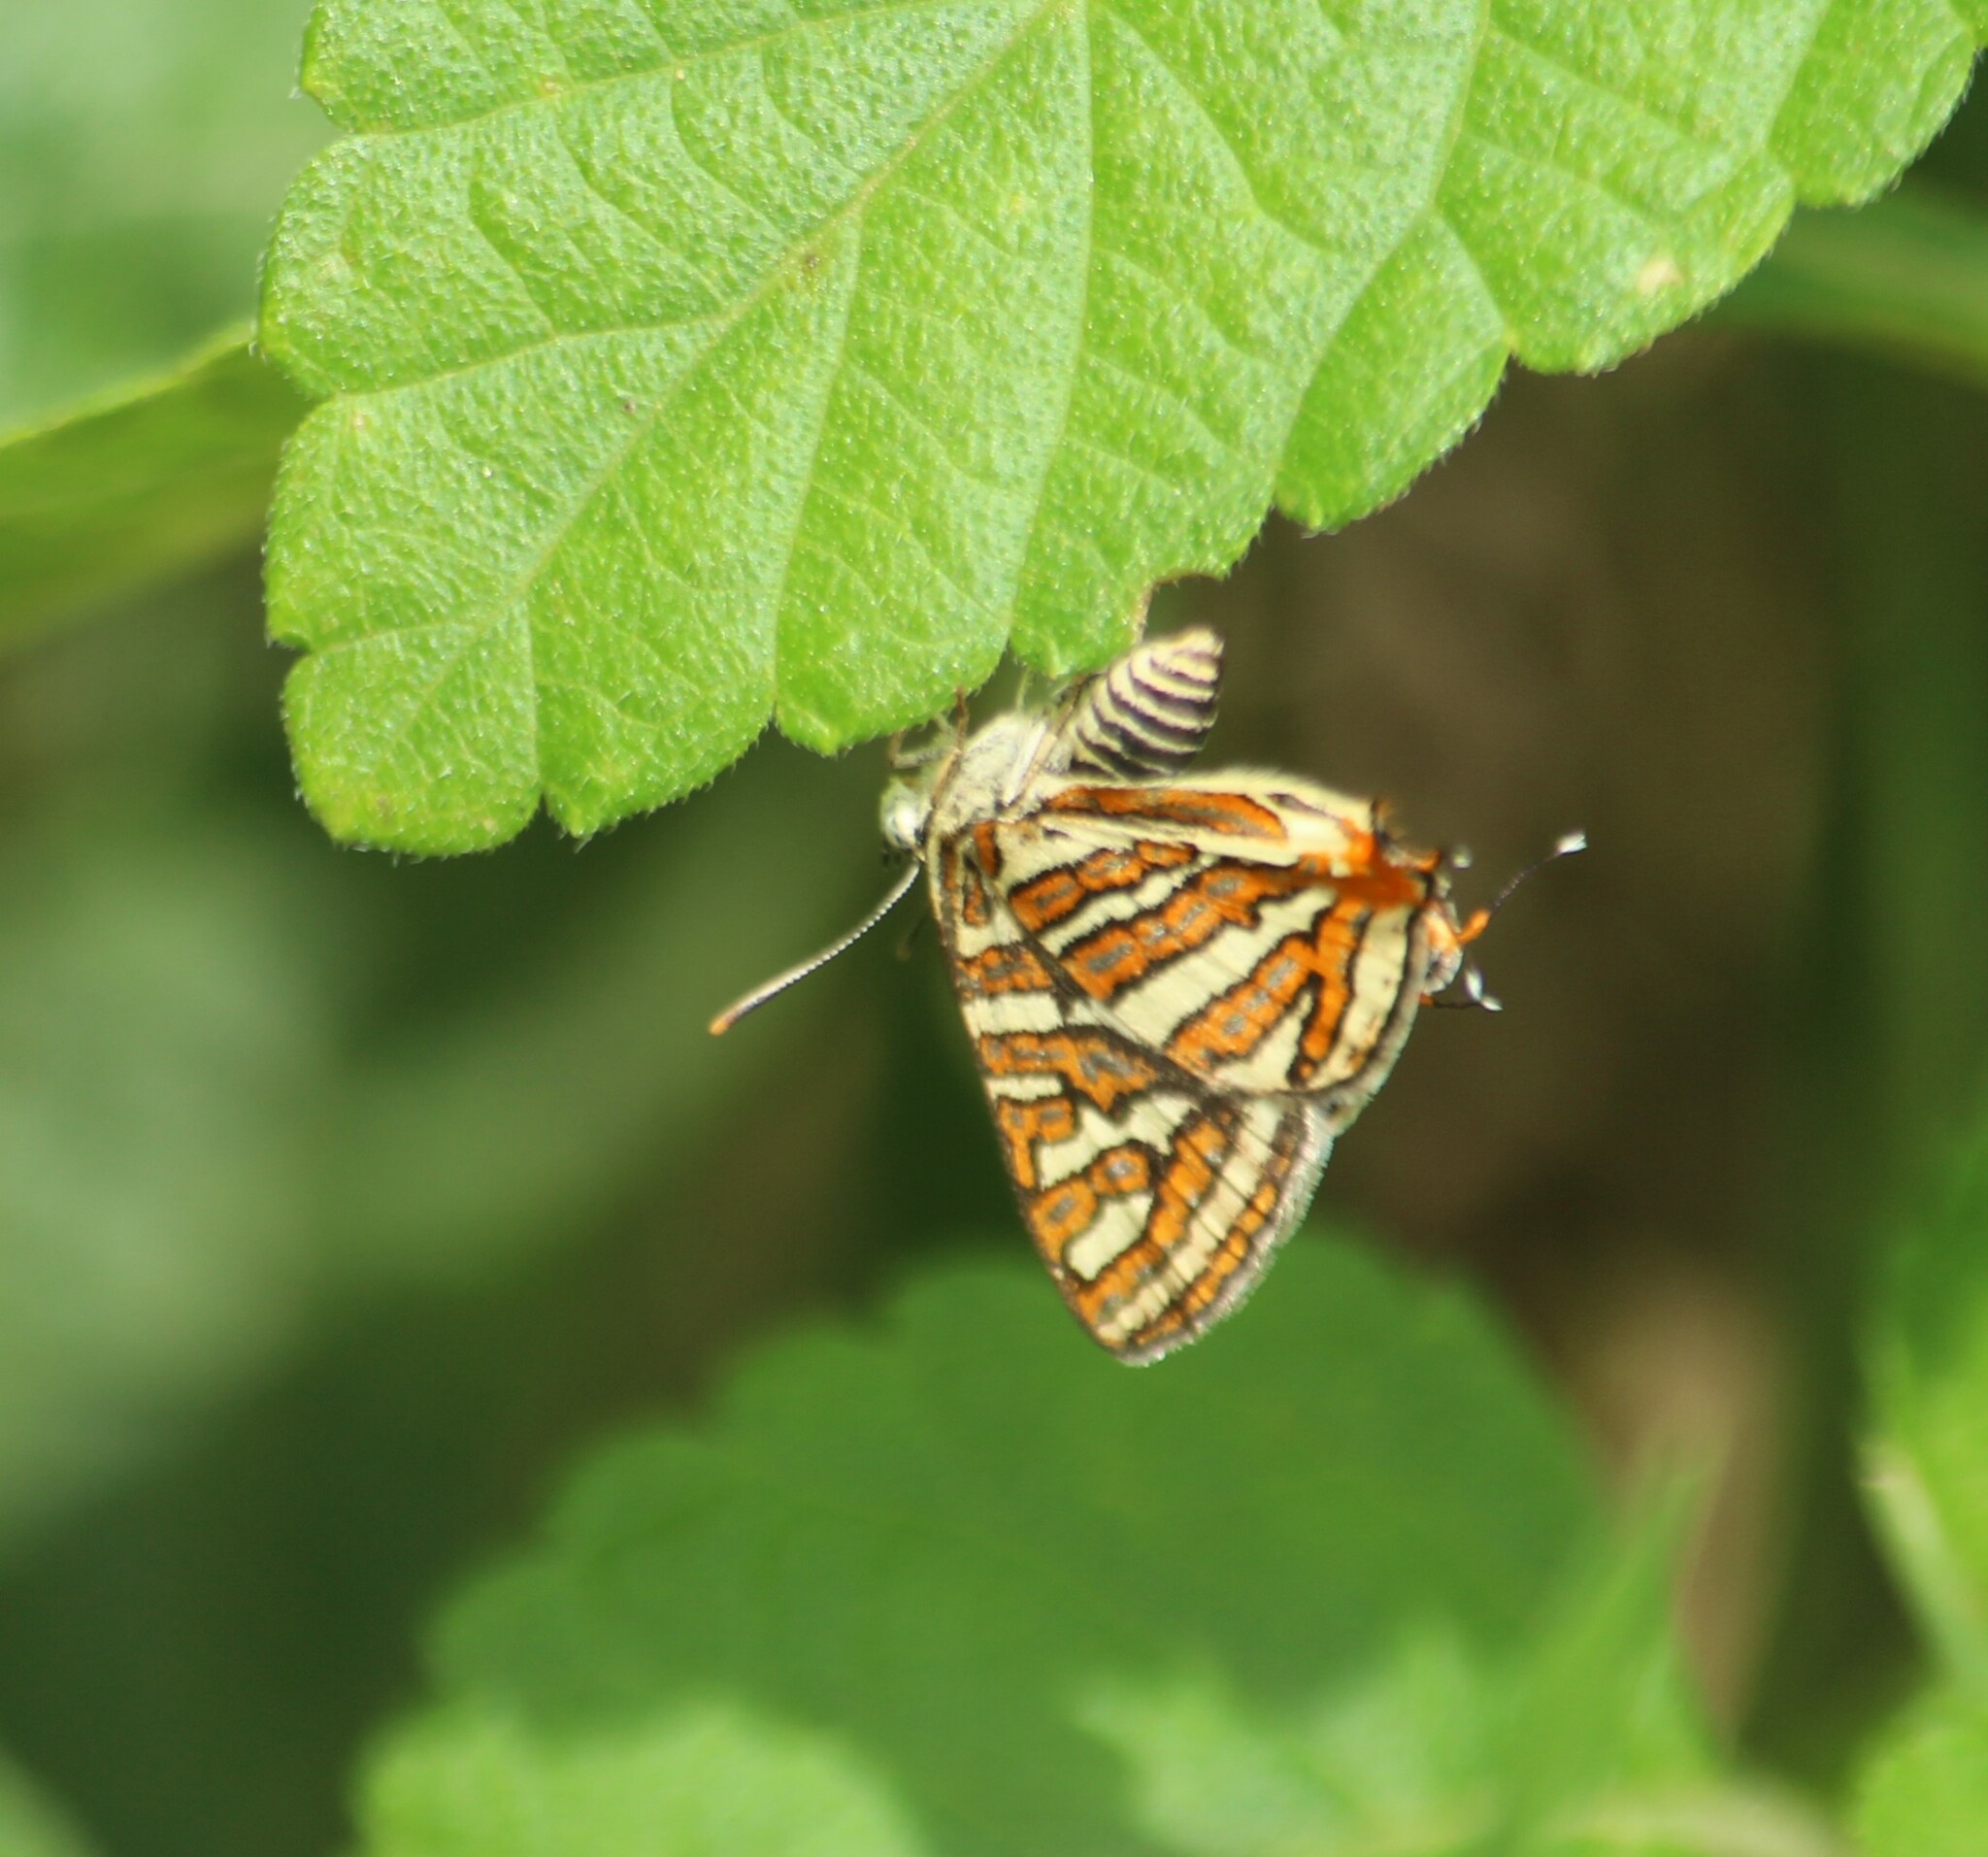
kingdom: Animalia
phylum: Arthropoda
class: Insecta
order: Lepidoptera
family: Lycaenidae
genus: Cigaritis
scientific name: Cigaritis vulcanus
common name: Common silverline
